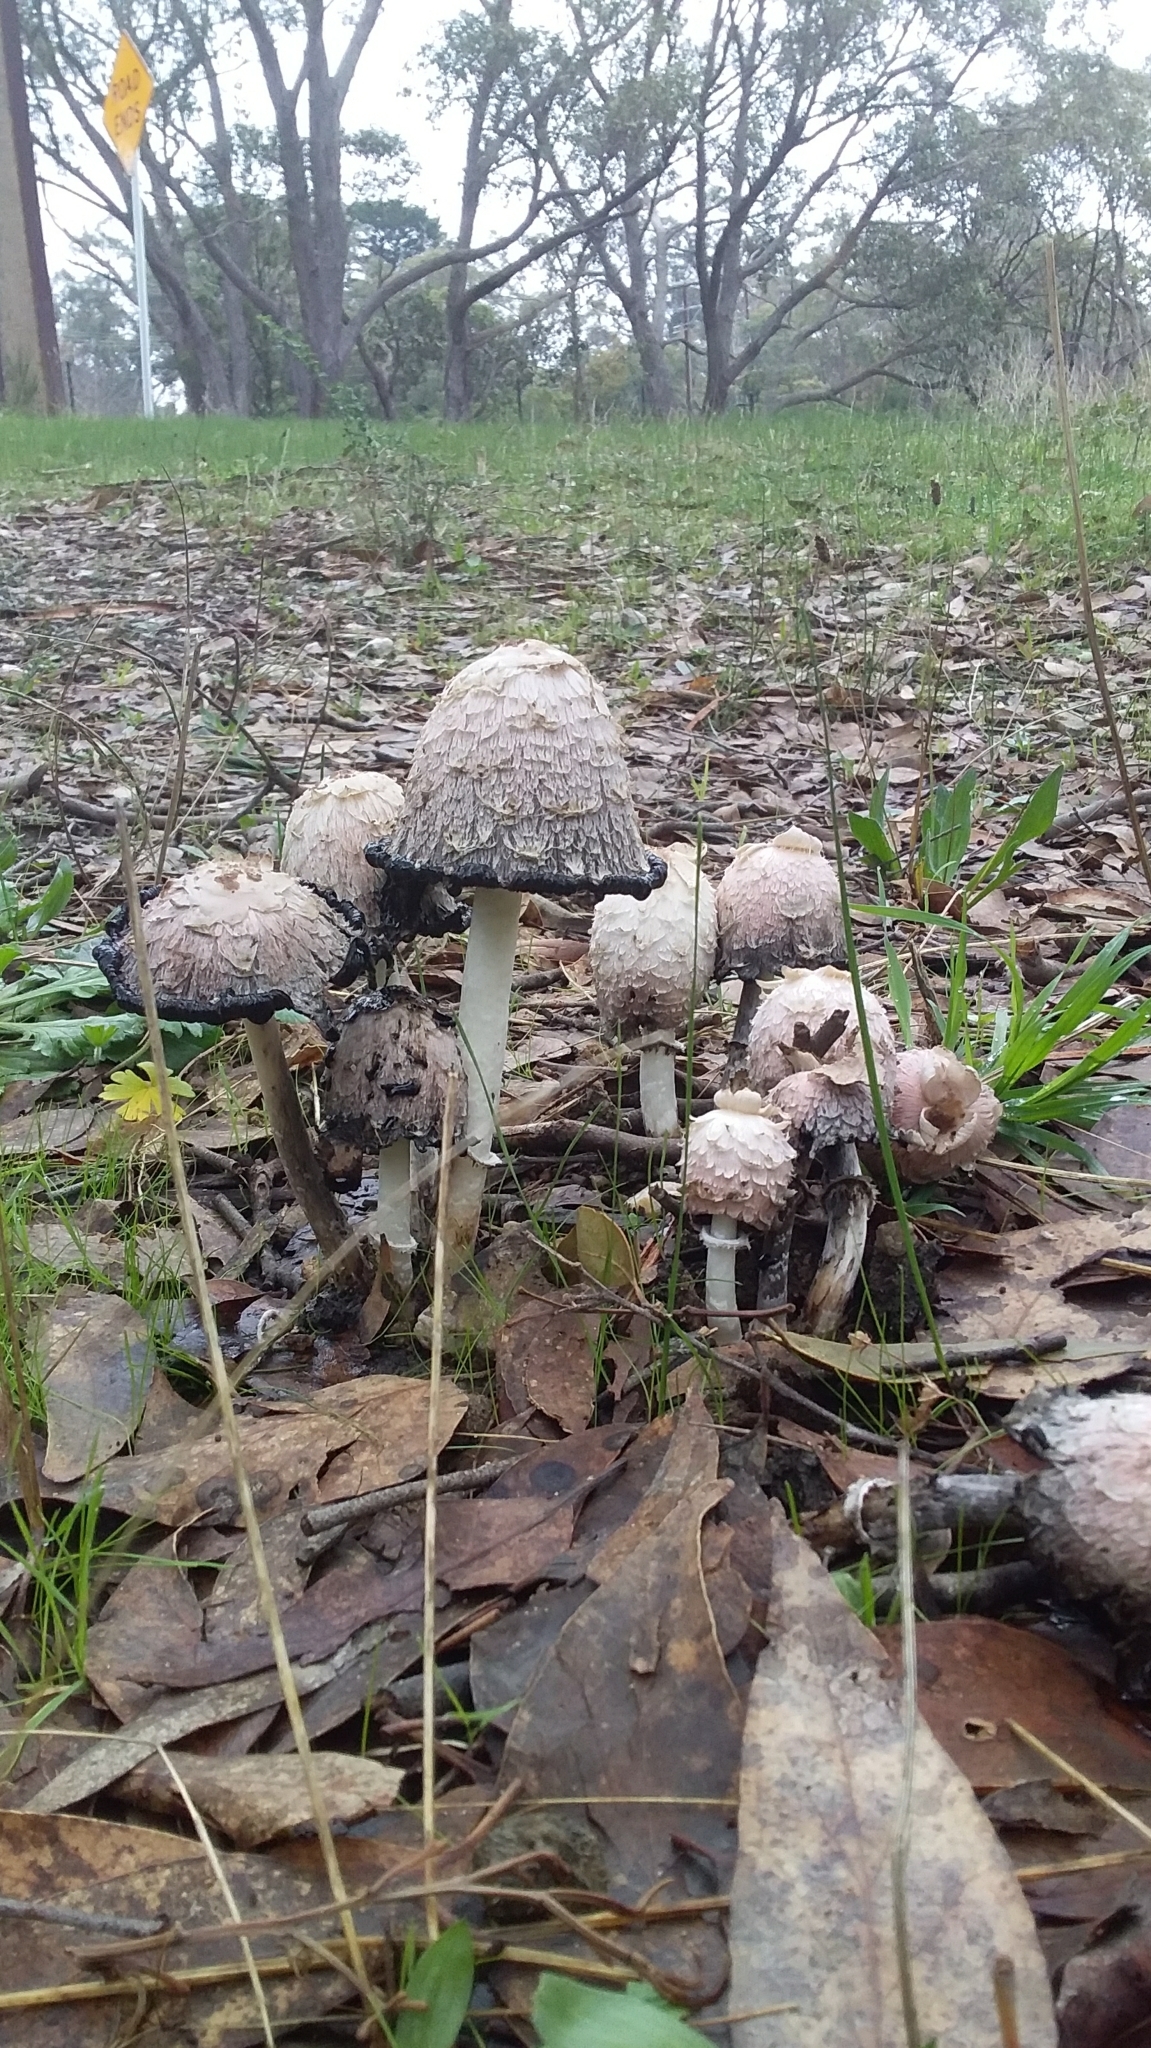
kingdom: Fungi
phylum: Basidiomycota
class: Agaricomycetes
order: Agaricales
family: Agaricaceae
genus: Coprinus
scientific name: Coprinus comatus
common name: Lawyer's wig
